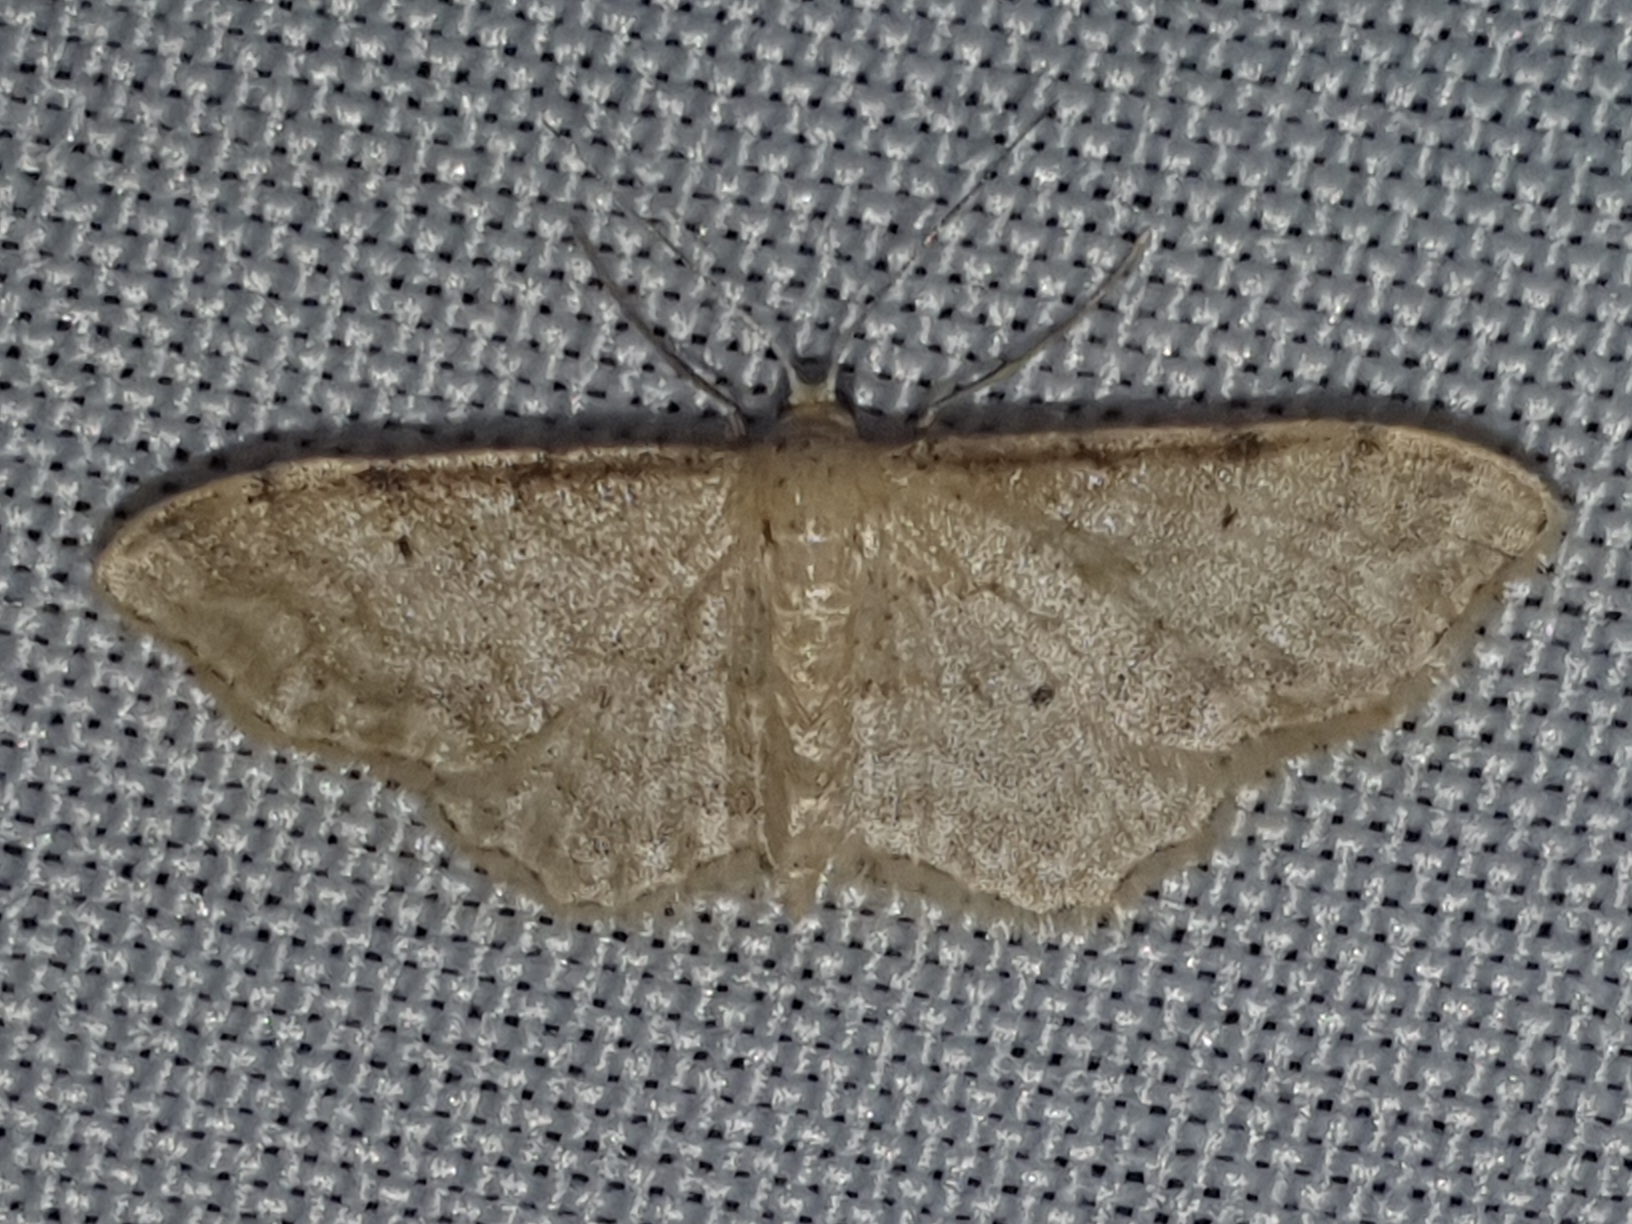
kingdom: Animalia
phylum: Arthropoda
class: Insecta
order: Lepidoptera
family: Geometridae
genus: Idaea
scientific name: Idaea fuscovenosa
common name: Dwarf cream wave
